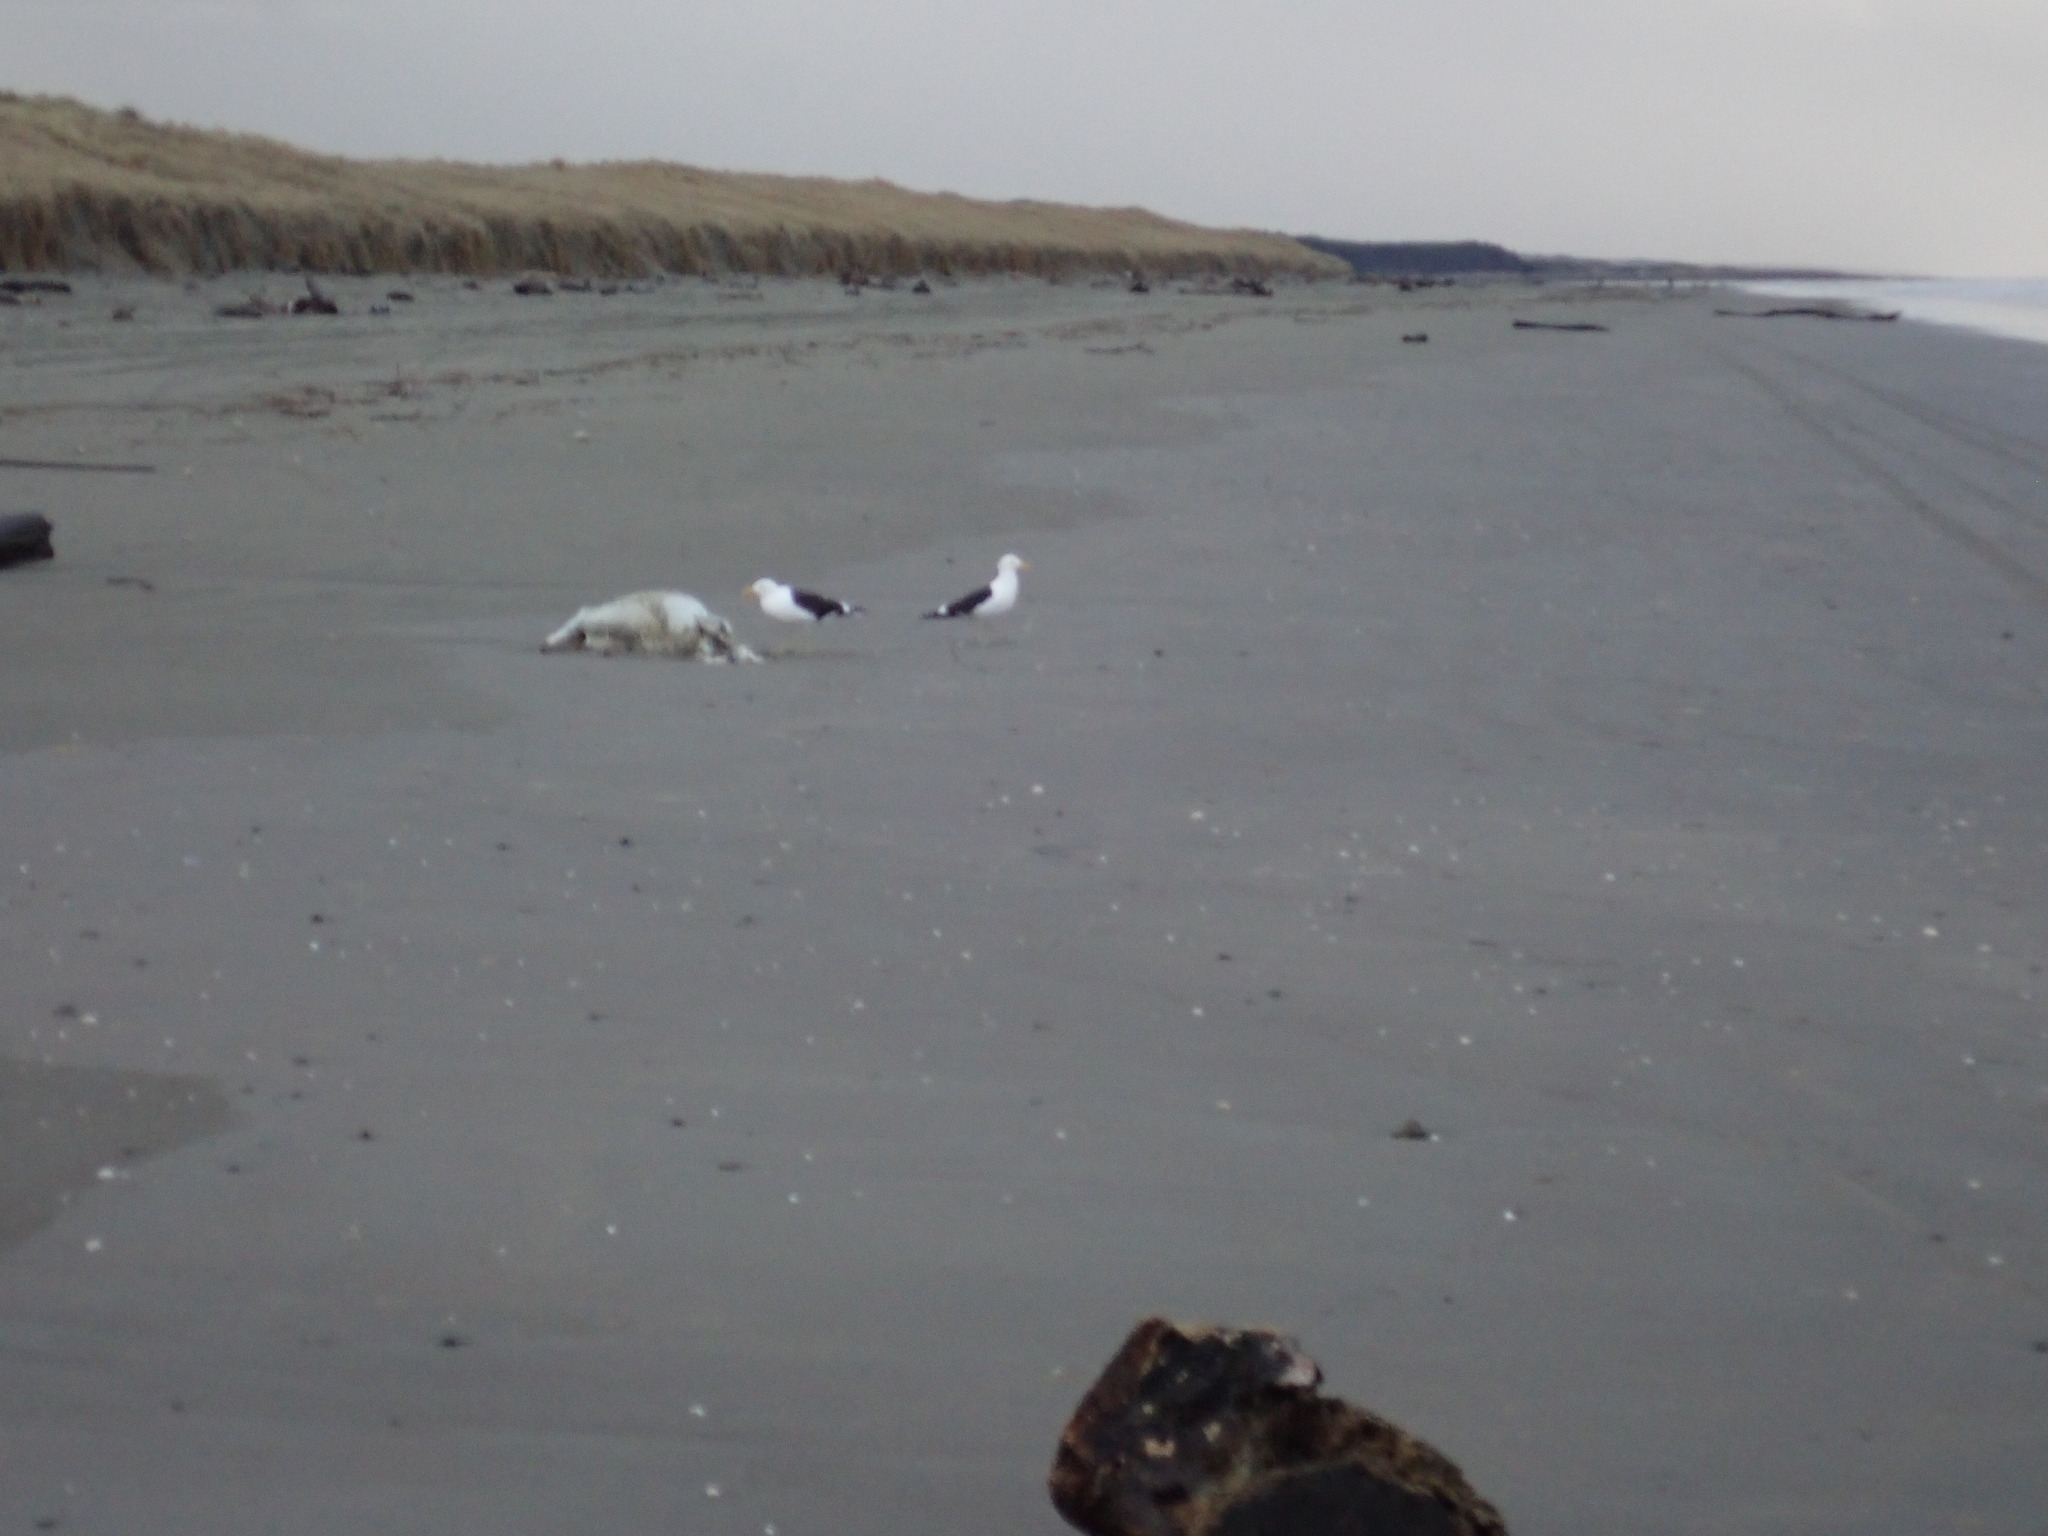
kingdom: Animalia
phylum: Chordata
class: Aves
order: Charadriiformes
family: Laridae
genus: Larus
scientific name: Larus dominicanus
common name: Kelp gull
